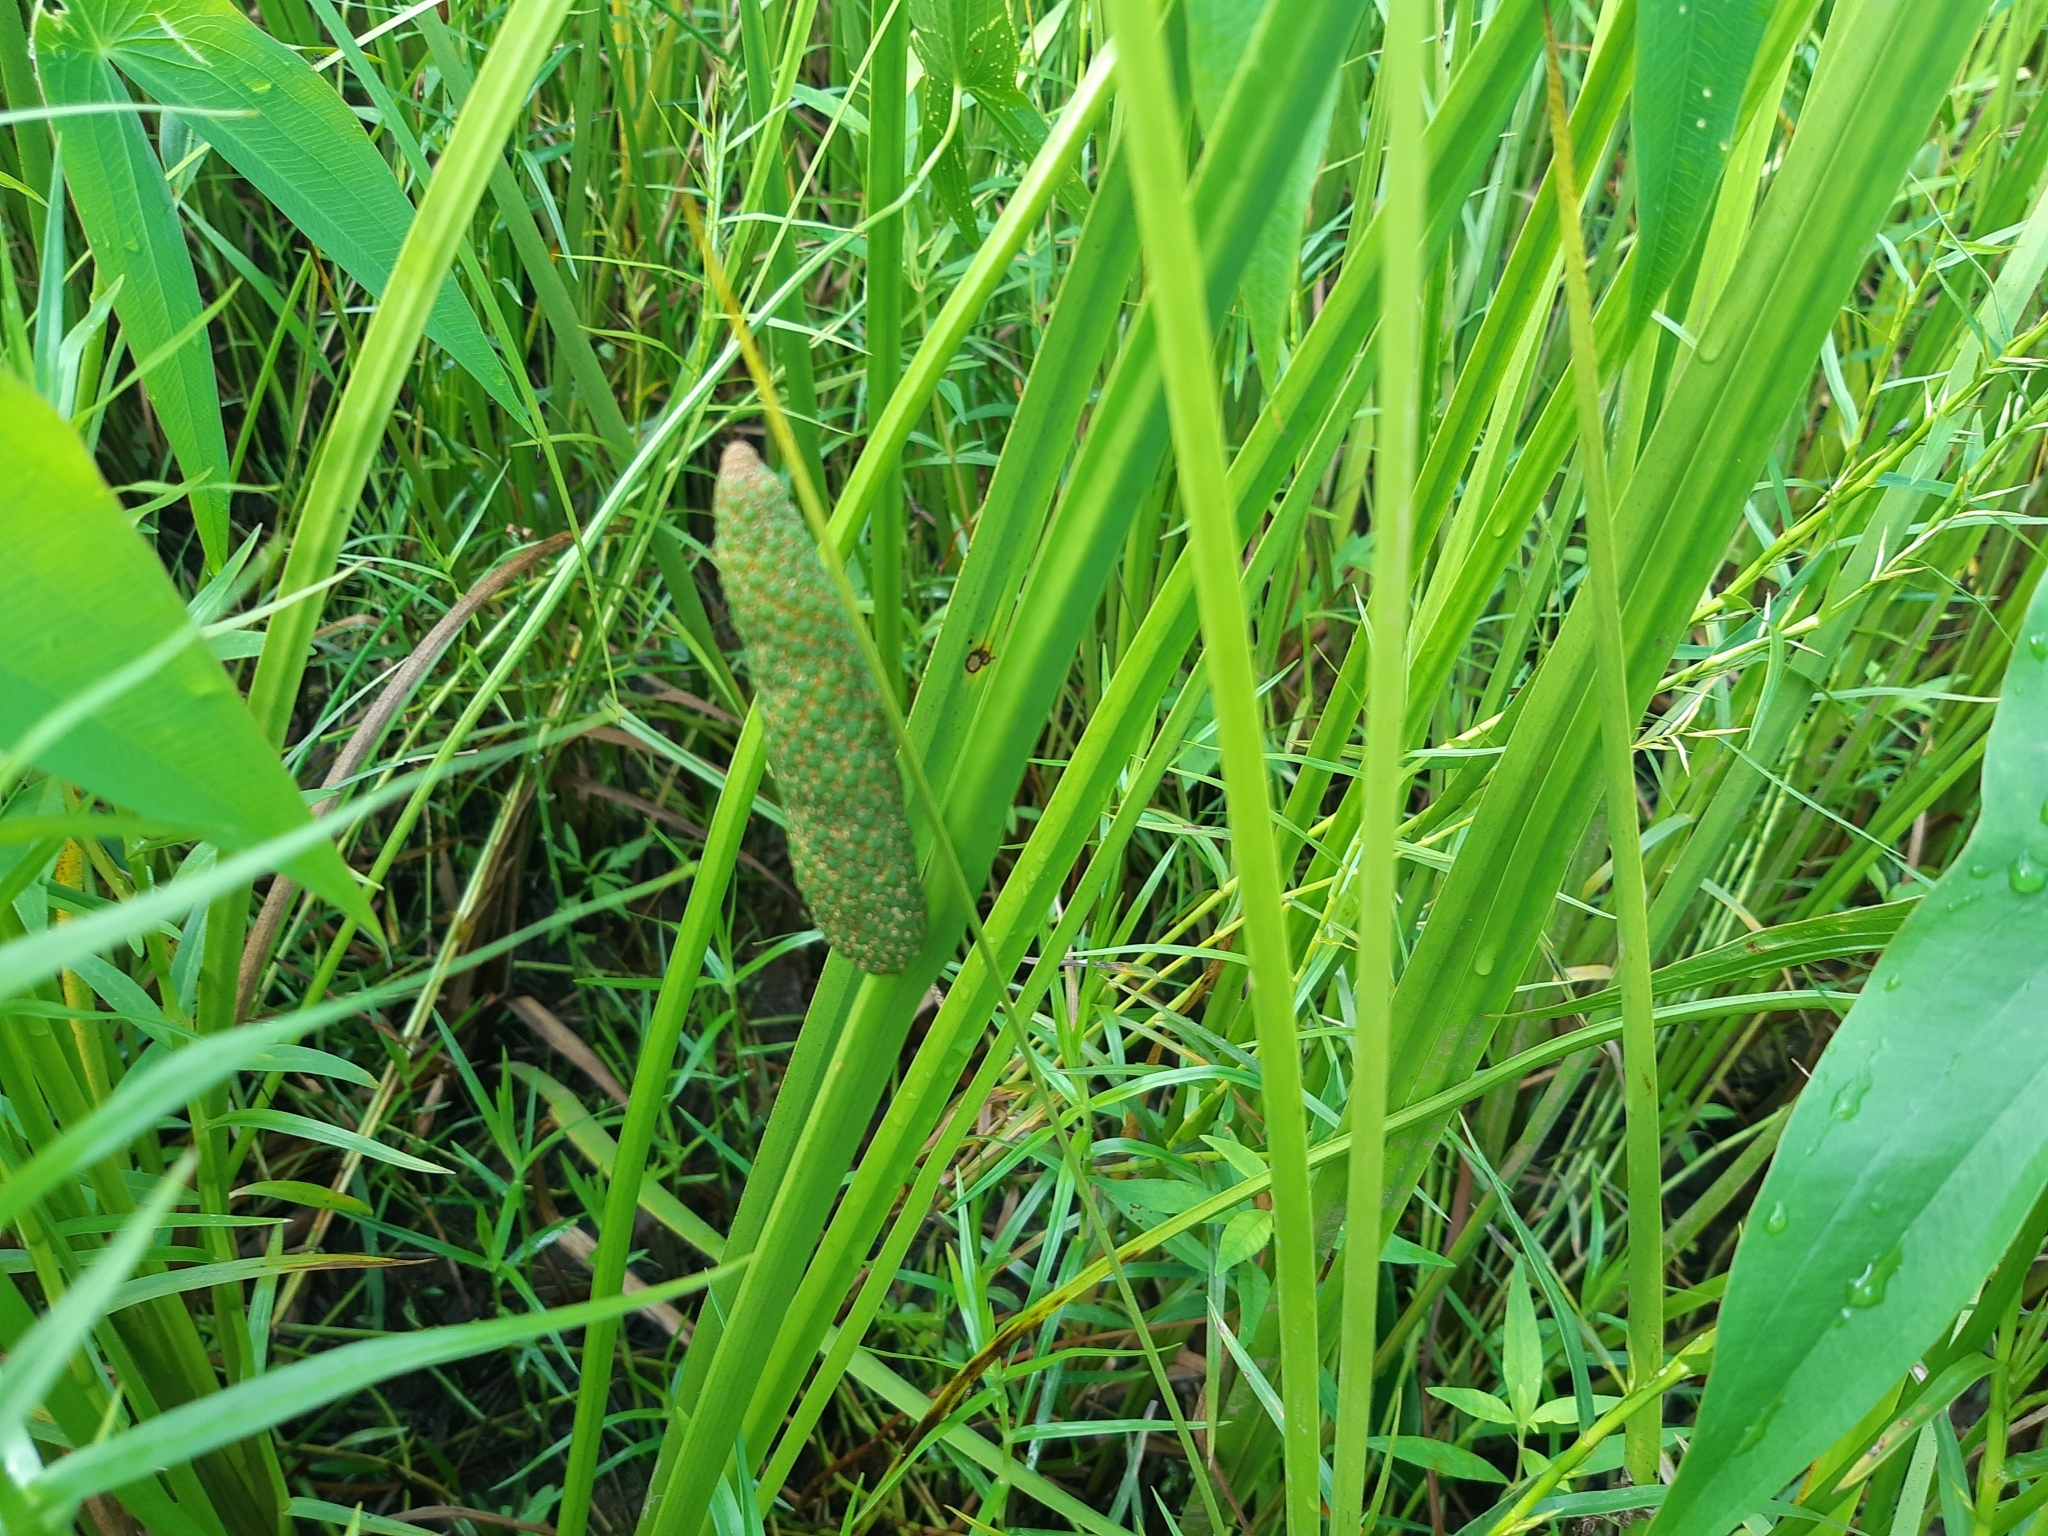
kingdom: Plantae
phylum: Tracheophyta
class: Liliopsida
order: Acorales
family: Acoraceae
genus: Acorus
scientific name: Acorus calamus
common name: Sweet-flag
